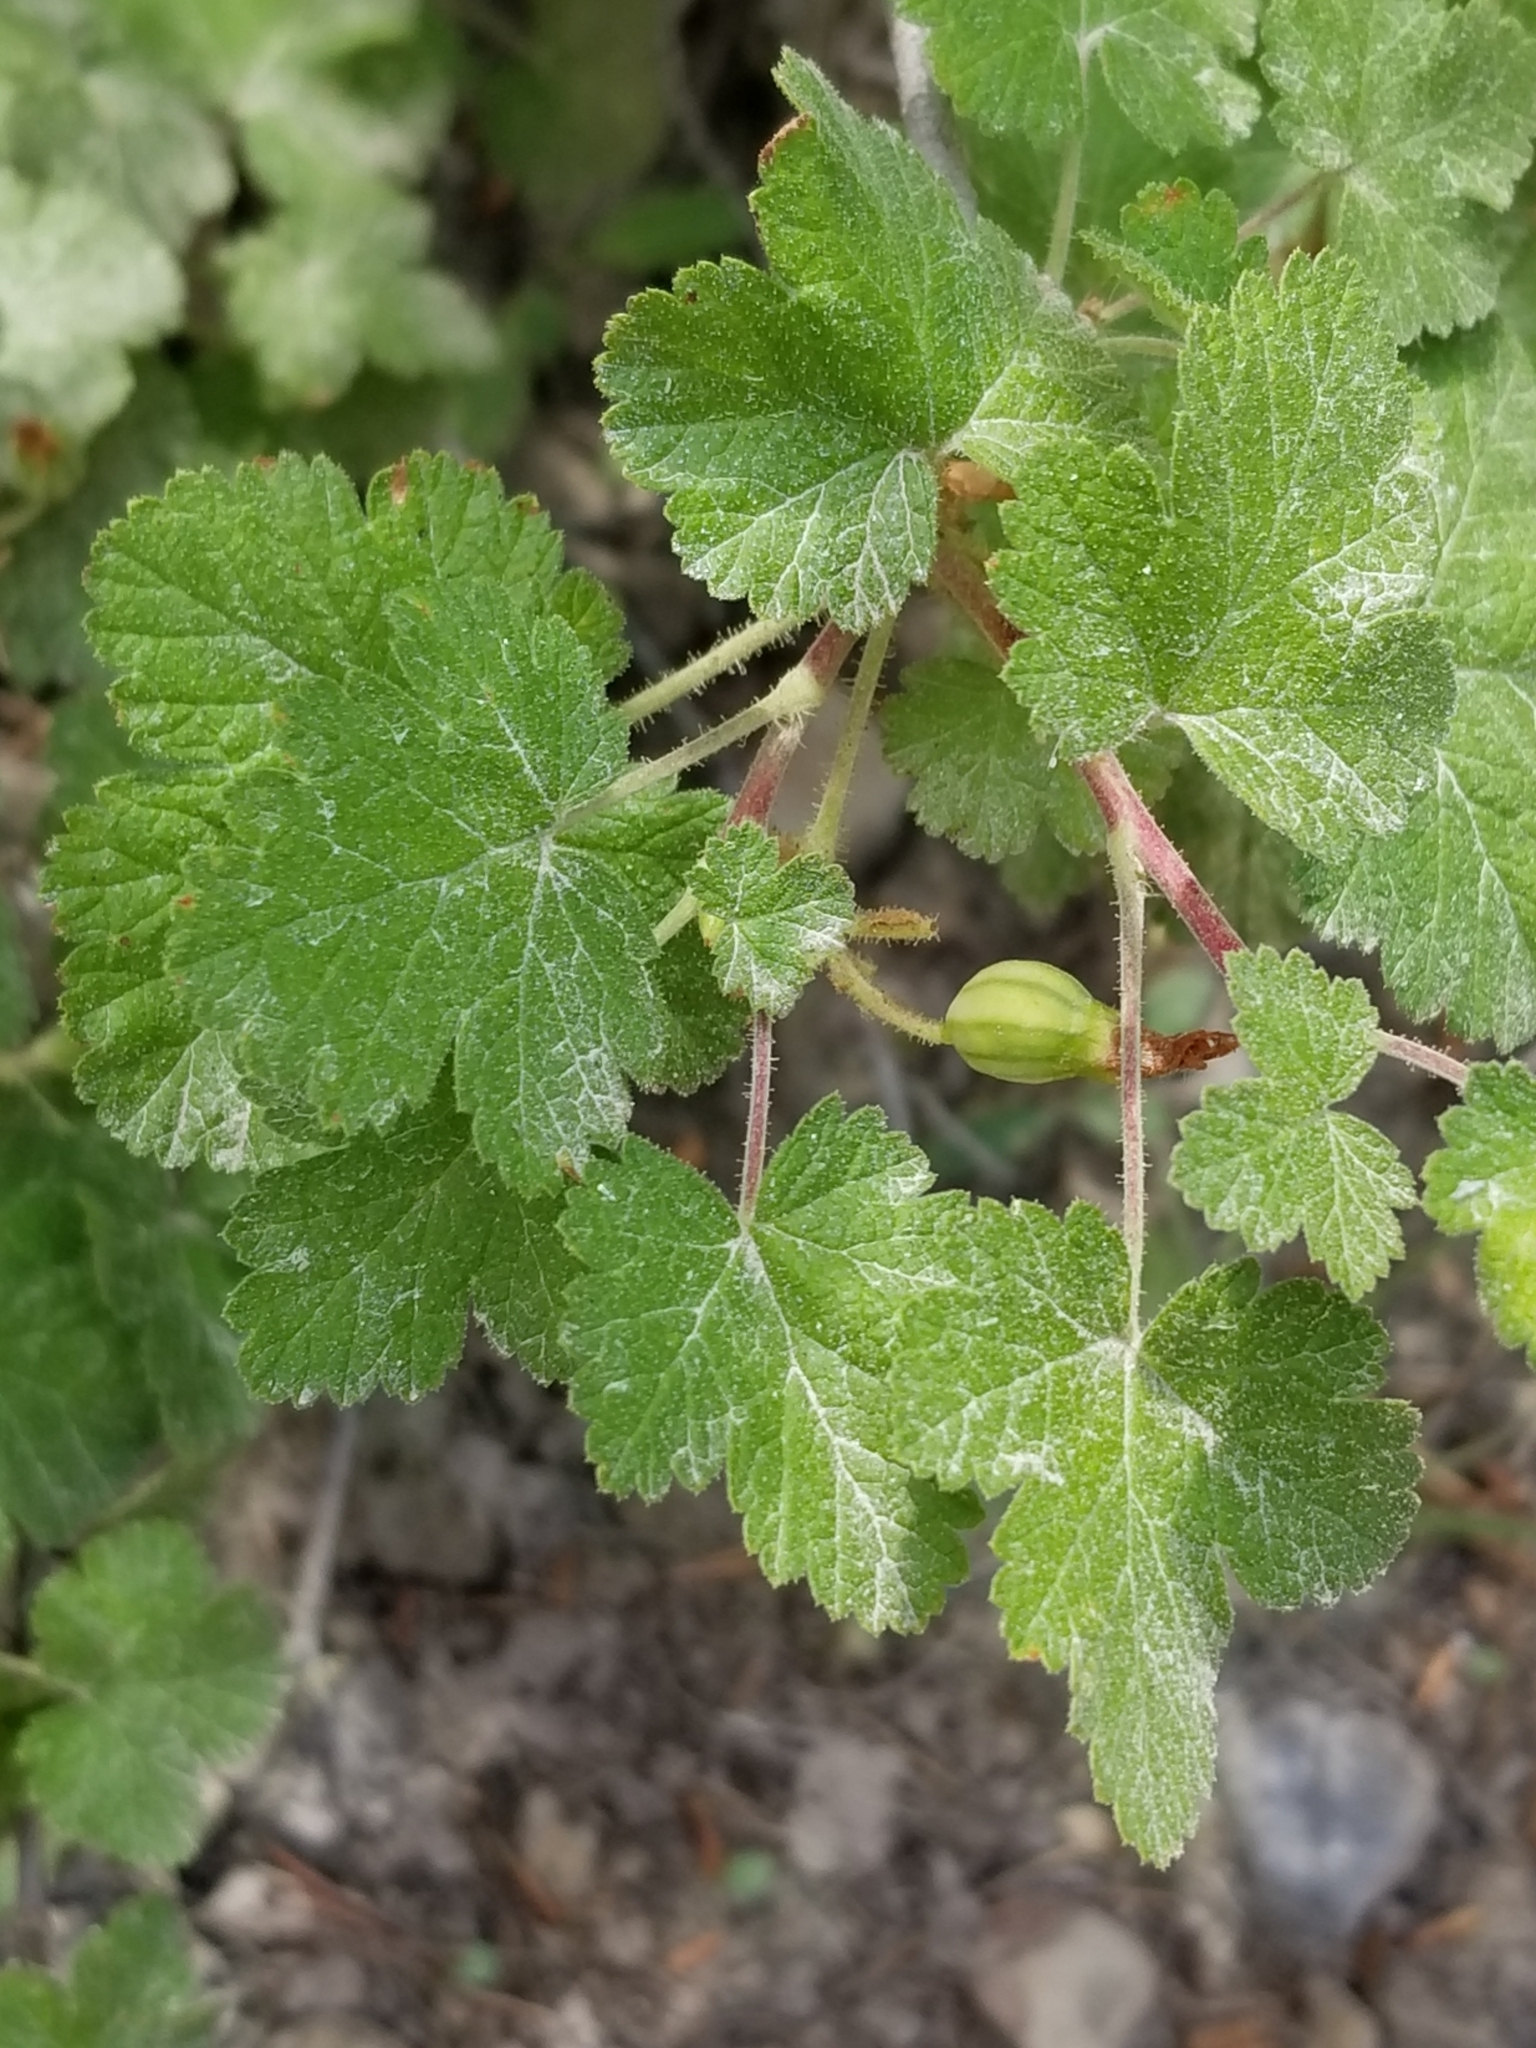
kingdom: Plantae
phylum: Tracheophyta
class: Magnoliopsida
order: Saxifragales
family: Grossulariaceae
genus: Ribes
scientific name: Ribes viscosissimum
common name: Sticky currant
